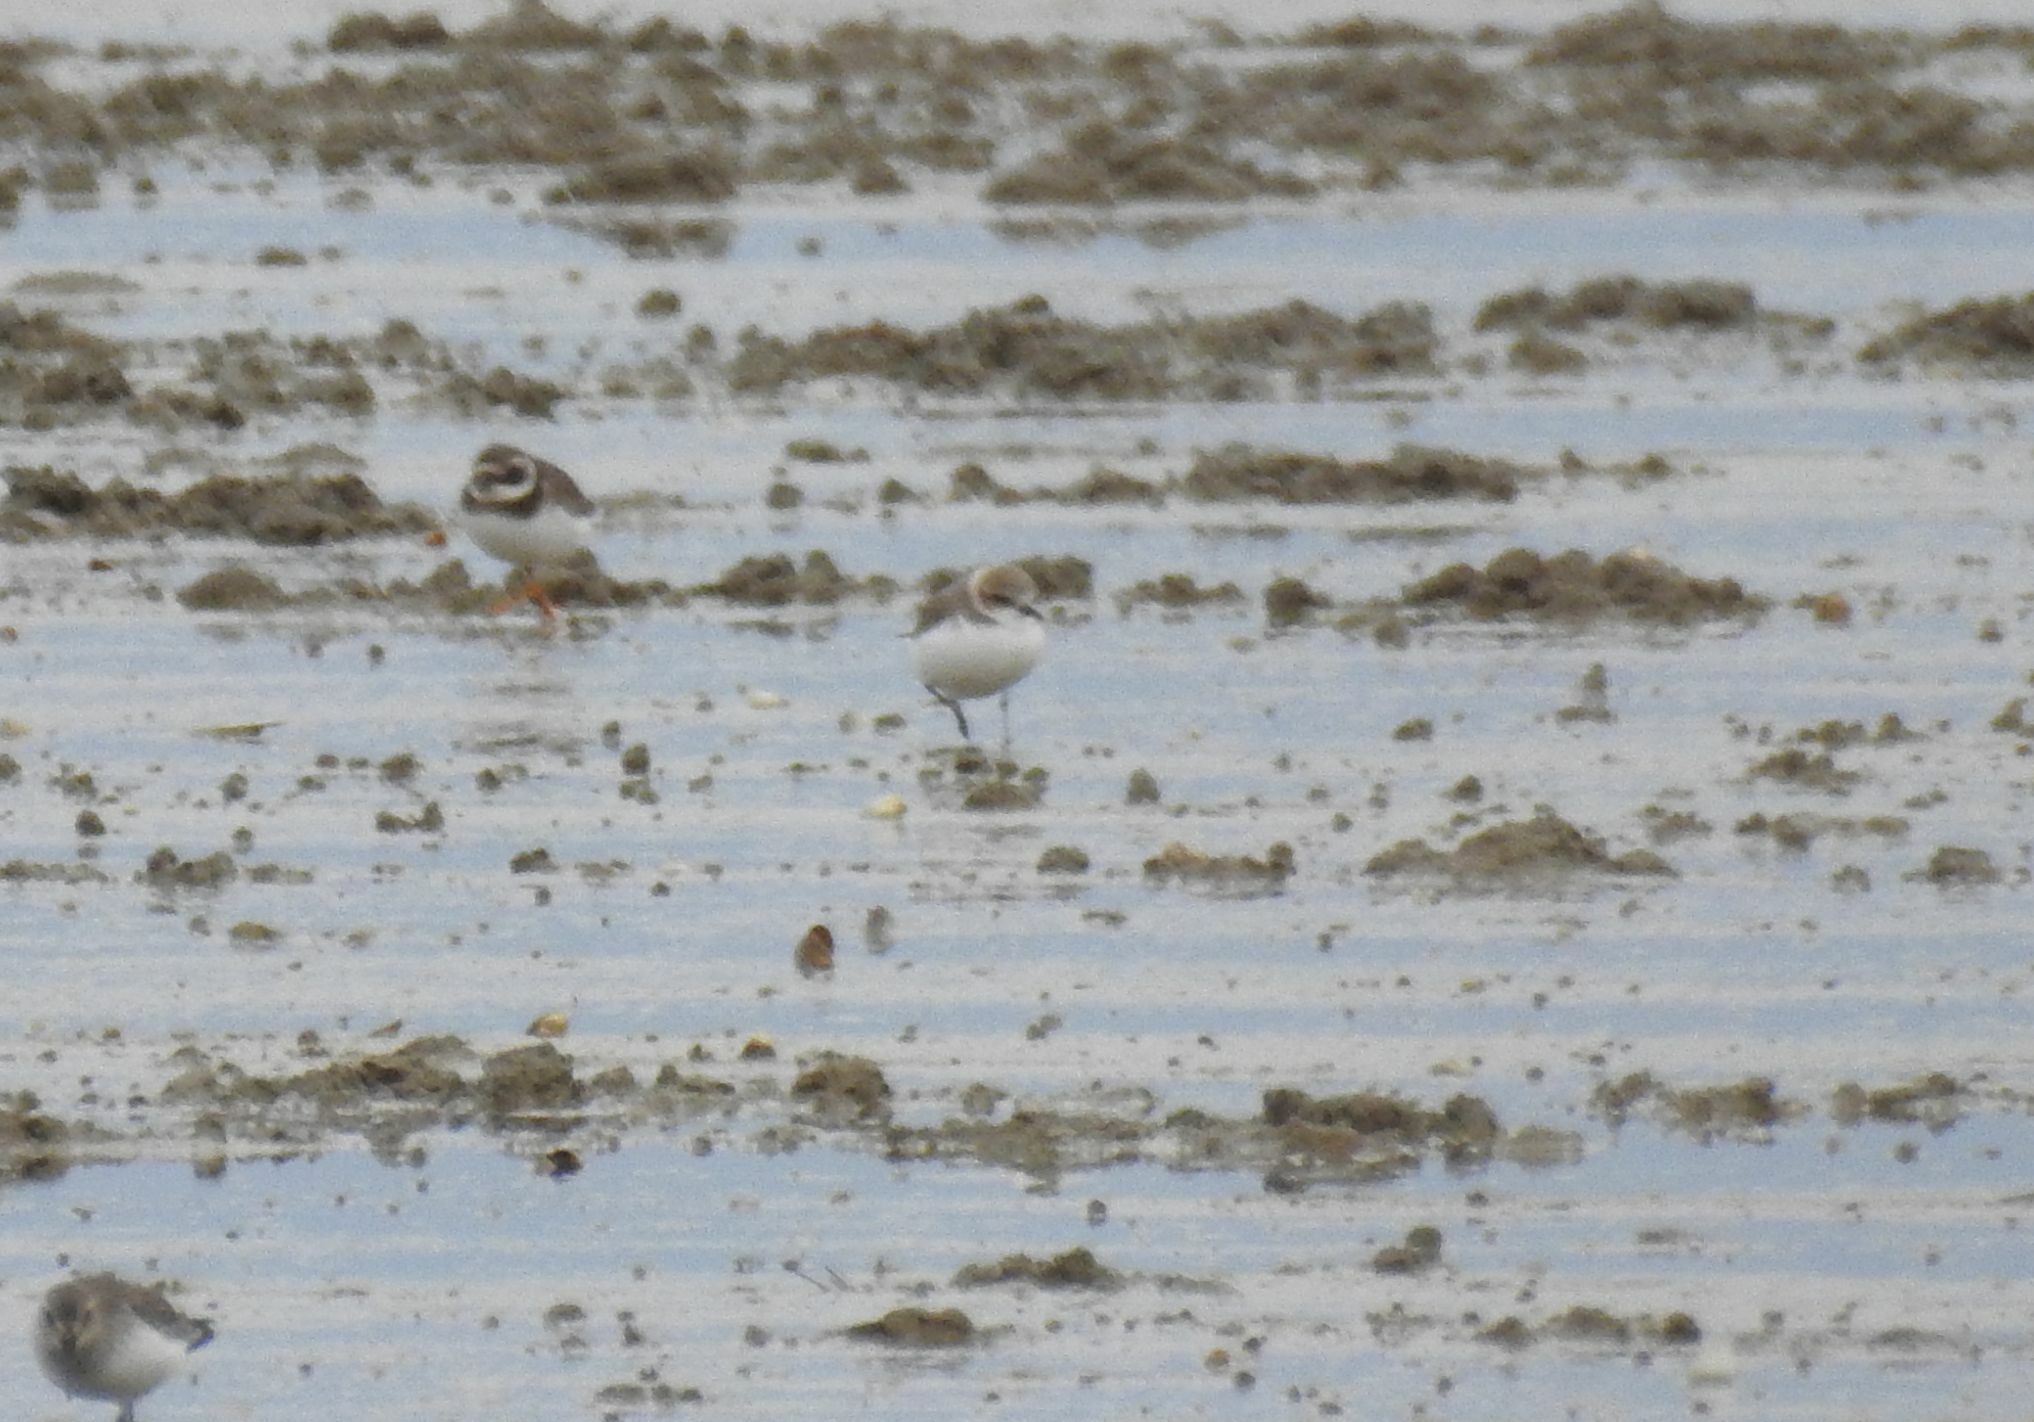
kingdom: Animalia
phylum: Chordata
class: Aves
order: Charadriiformes
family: Charadriidae
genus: Charadrius
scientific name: Charadrius alexandrinus
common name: Kentish plover
